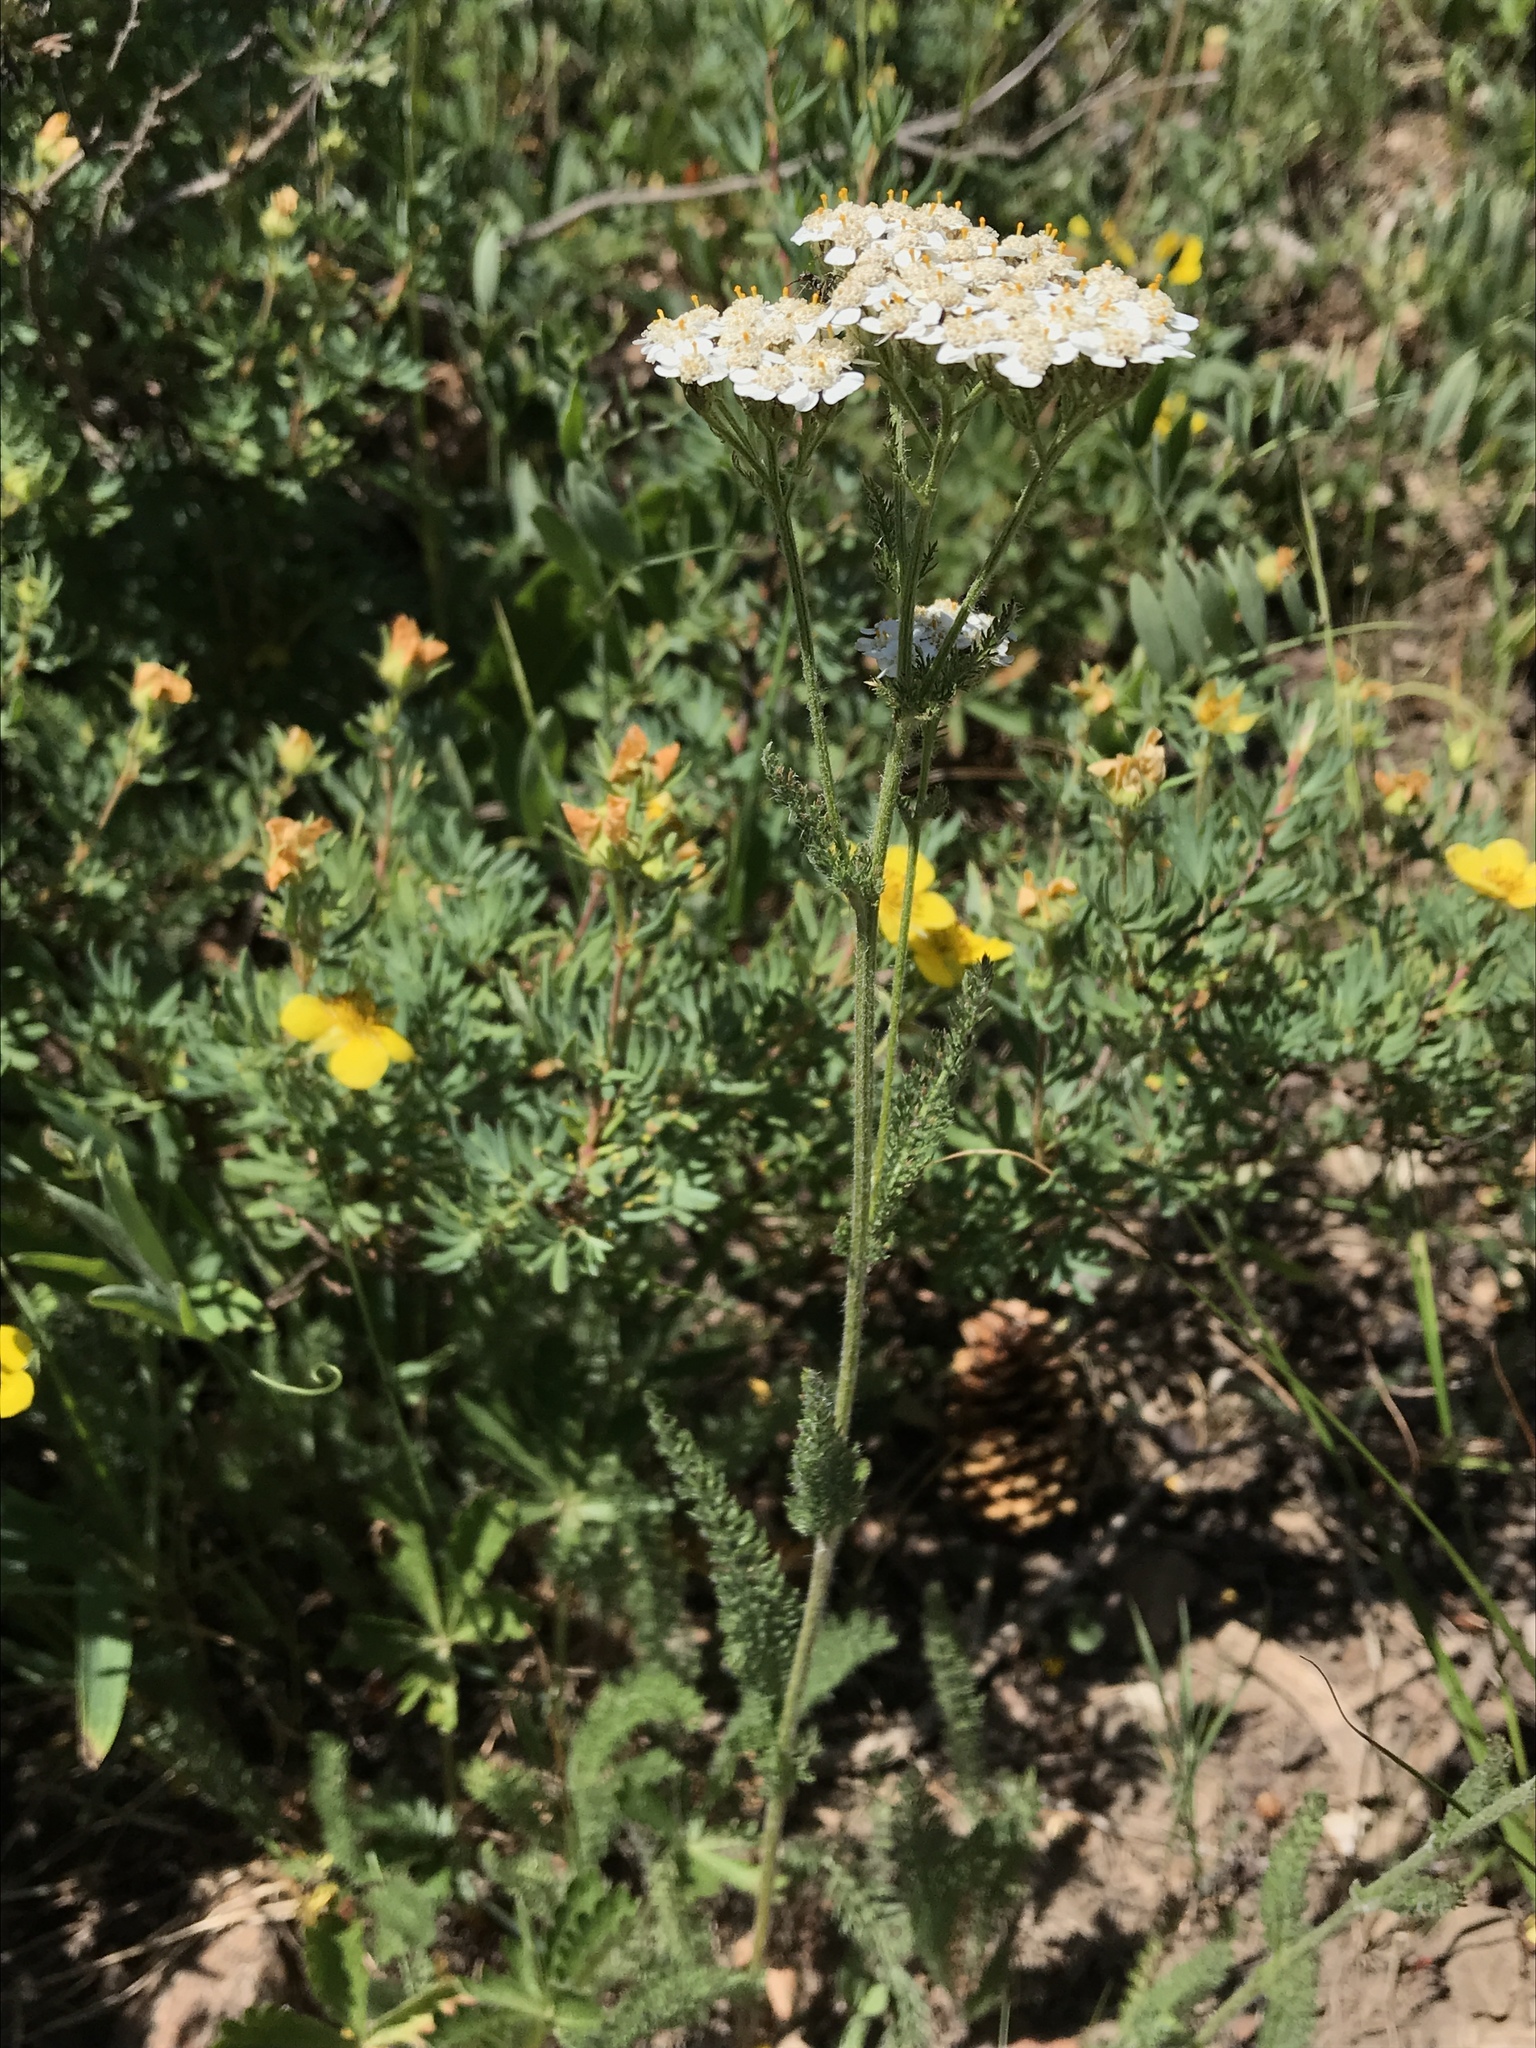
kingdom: Plantae
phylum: Tracheophyta
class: Magnoliopsida
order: Asterales
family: Asteraceae
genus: Achillea
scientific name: Achillea millefolium
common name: Yarrow
